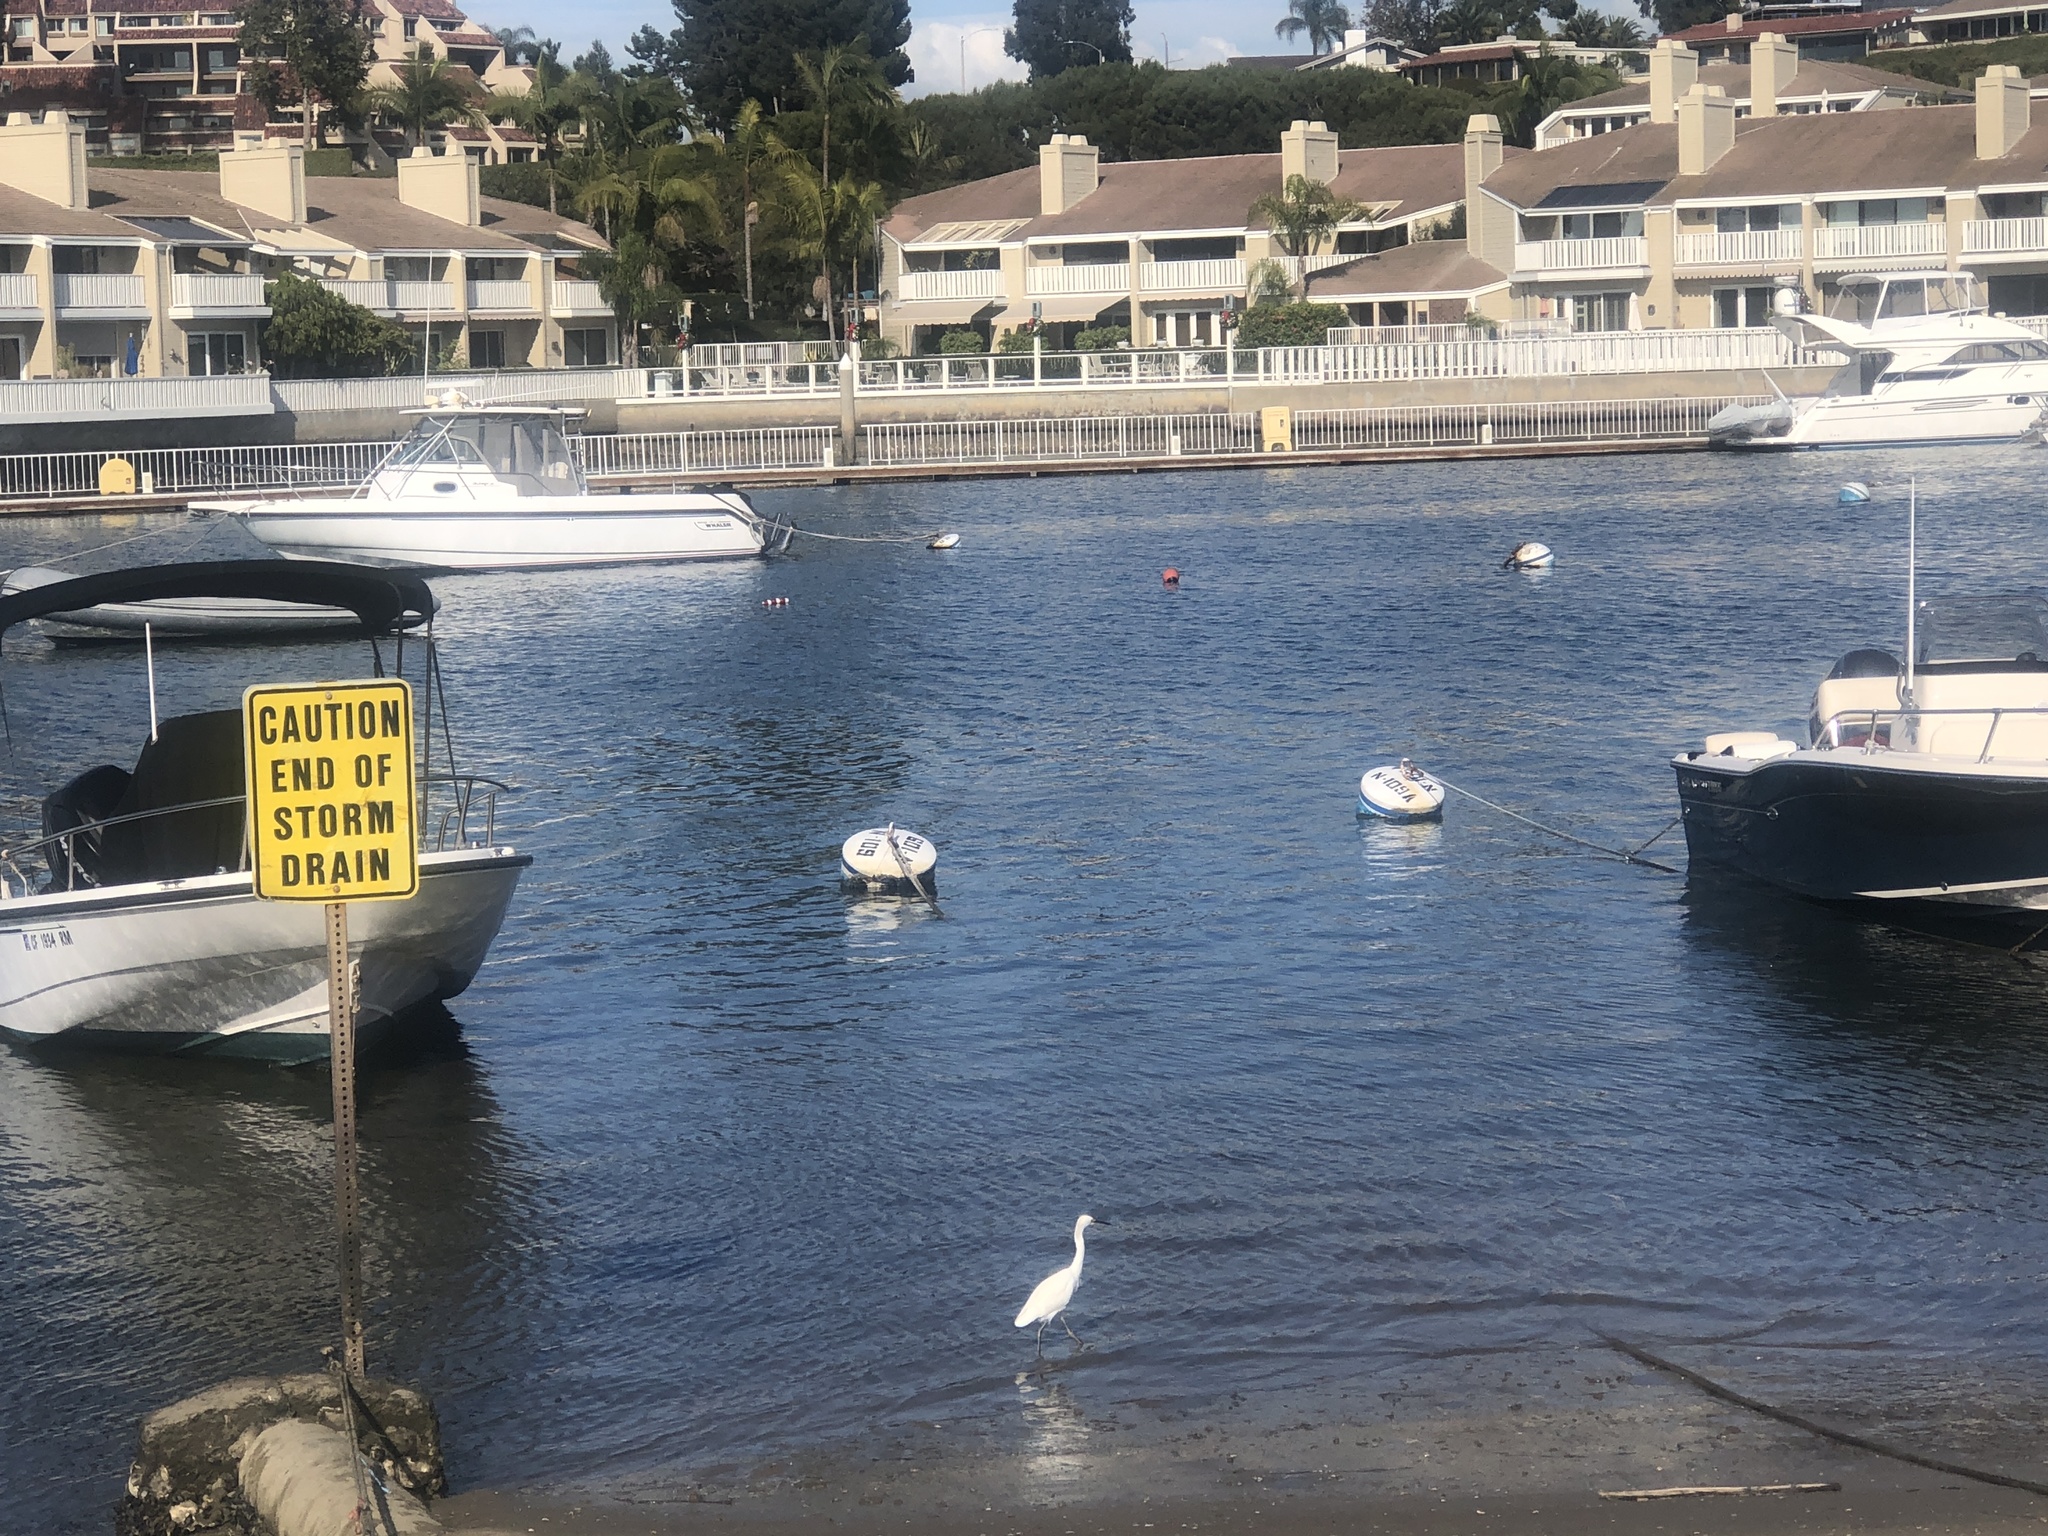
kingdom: Animalia
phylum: Chordata
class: Aves
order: Pelecaniformes
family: Ardeidae
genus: Egretta
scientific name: Egretta thula
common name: Snowy egret
